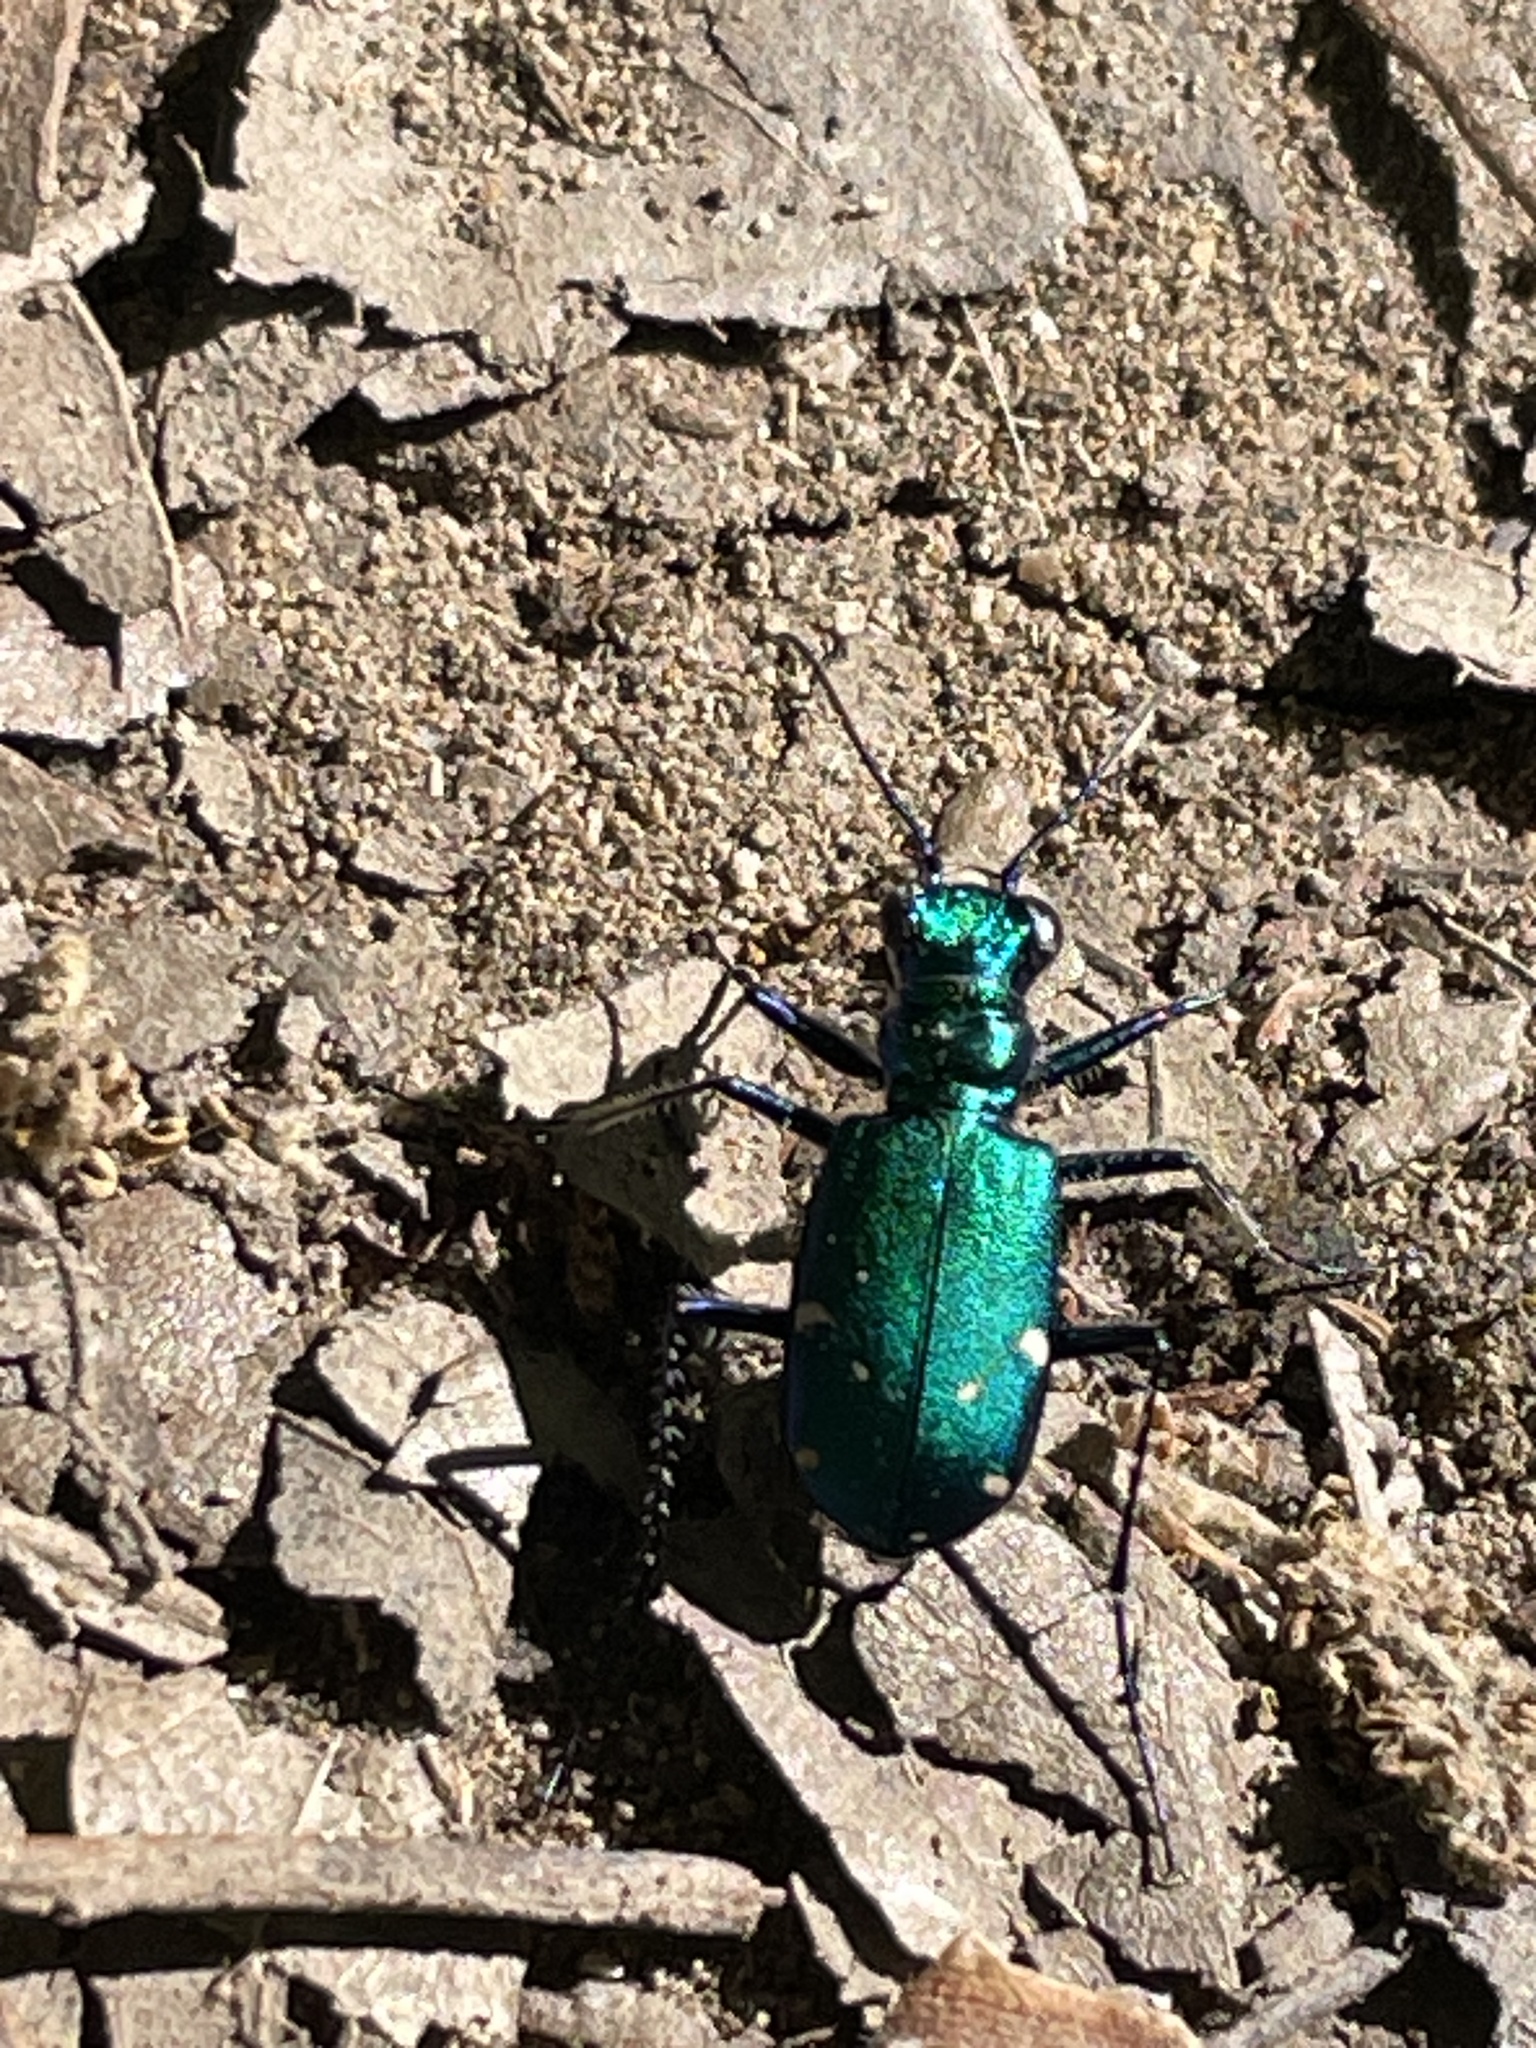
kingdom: Animalia
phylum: Arthropoda
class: Insecta
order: Coleoptera
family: Carabidae
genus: Cicindela
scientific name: Cicindela sexguttata
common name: Six-spotted tiger beetle
